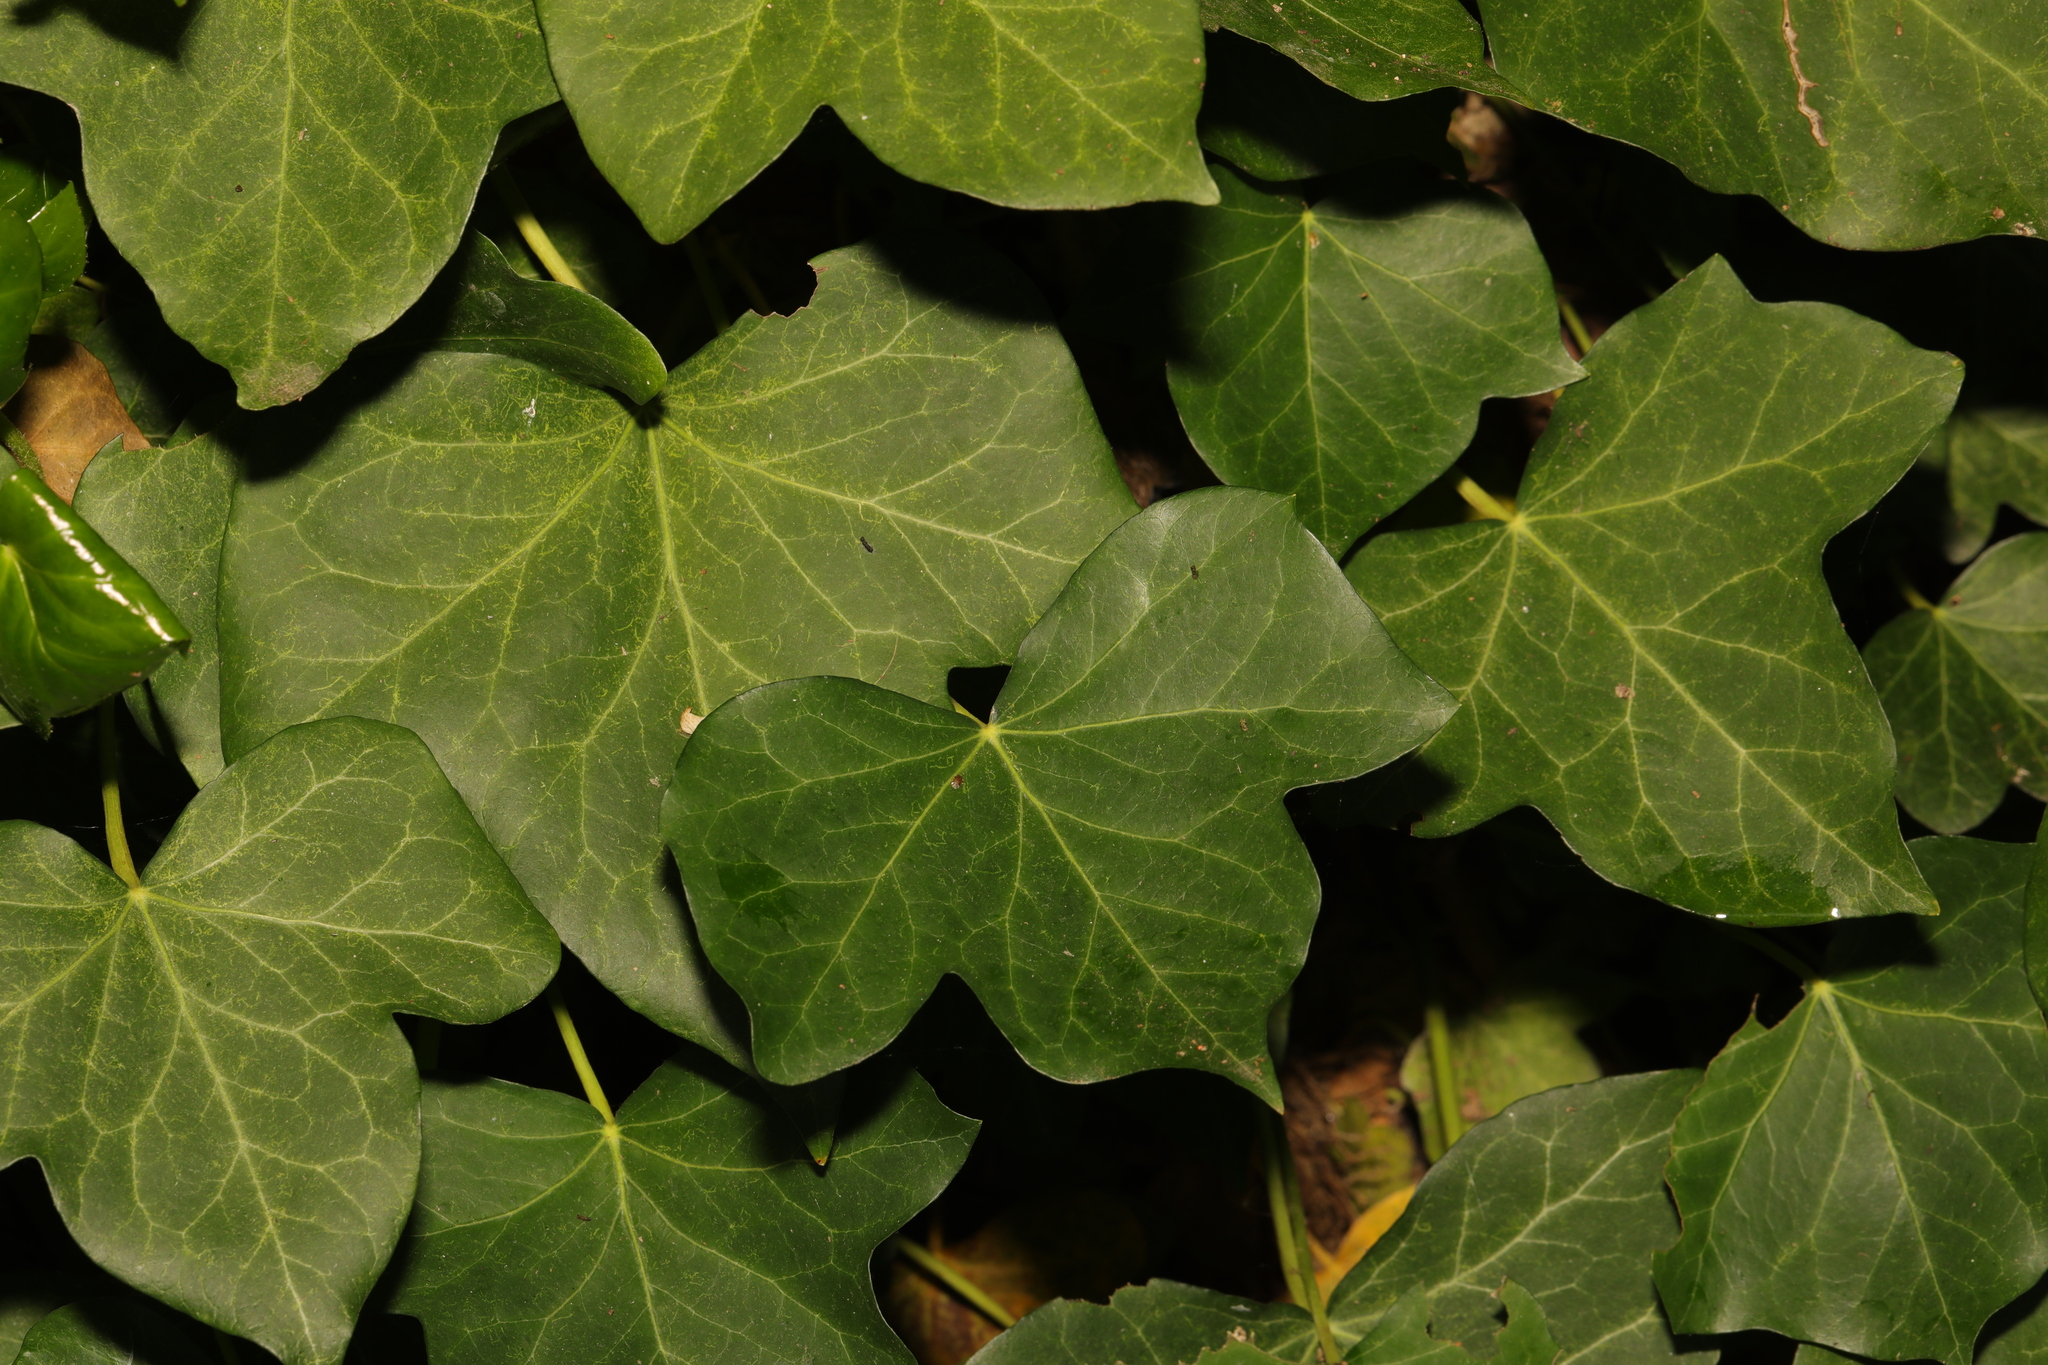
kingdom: Plantae
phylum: Tracheophyta
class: Magnoliopsida
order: Apiales
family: Araliaceae
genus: Hedera
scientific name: Hedera helix
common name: Ivy
